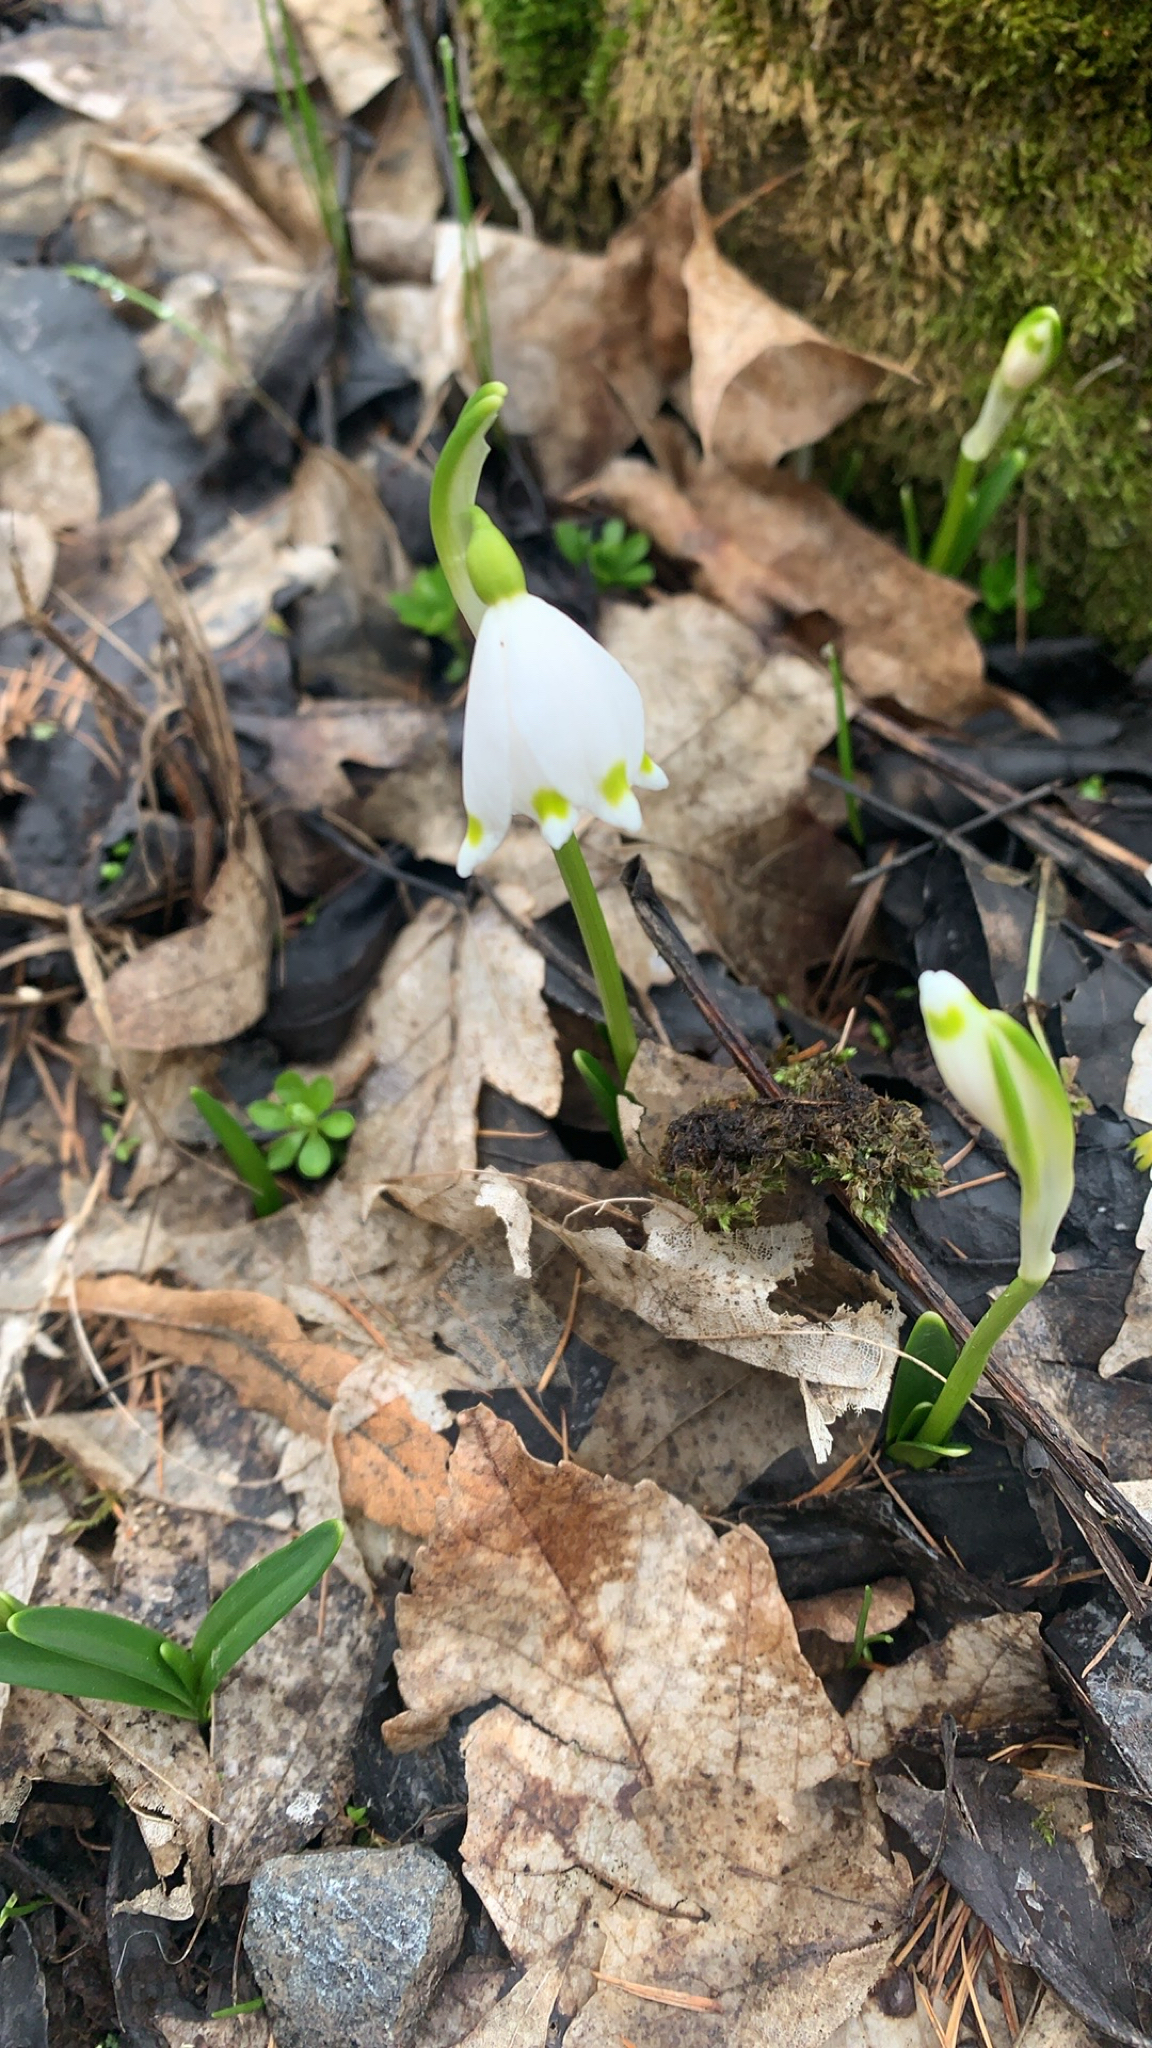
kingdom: Plantae
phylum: Tracheophyta
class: Liliopsida
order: Asparagales
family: Amaryllidaceae
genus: Leucojum
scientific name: Leucojum vernum
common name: Spring snowflake
